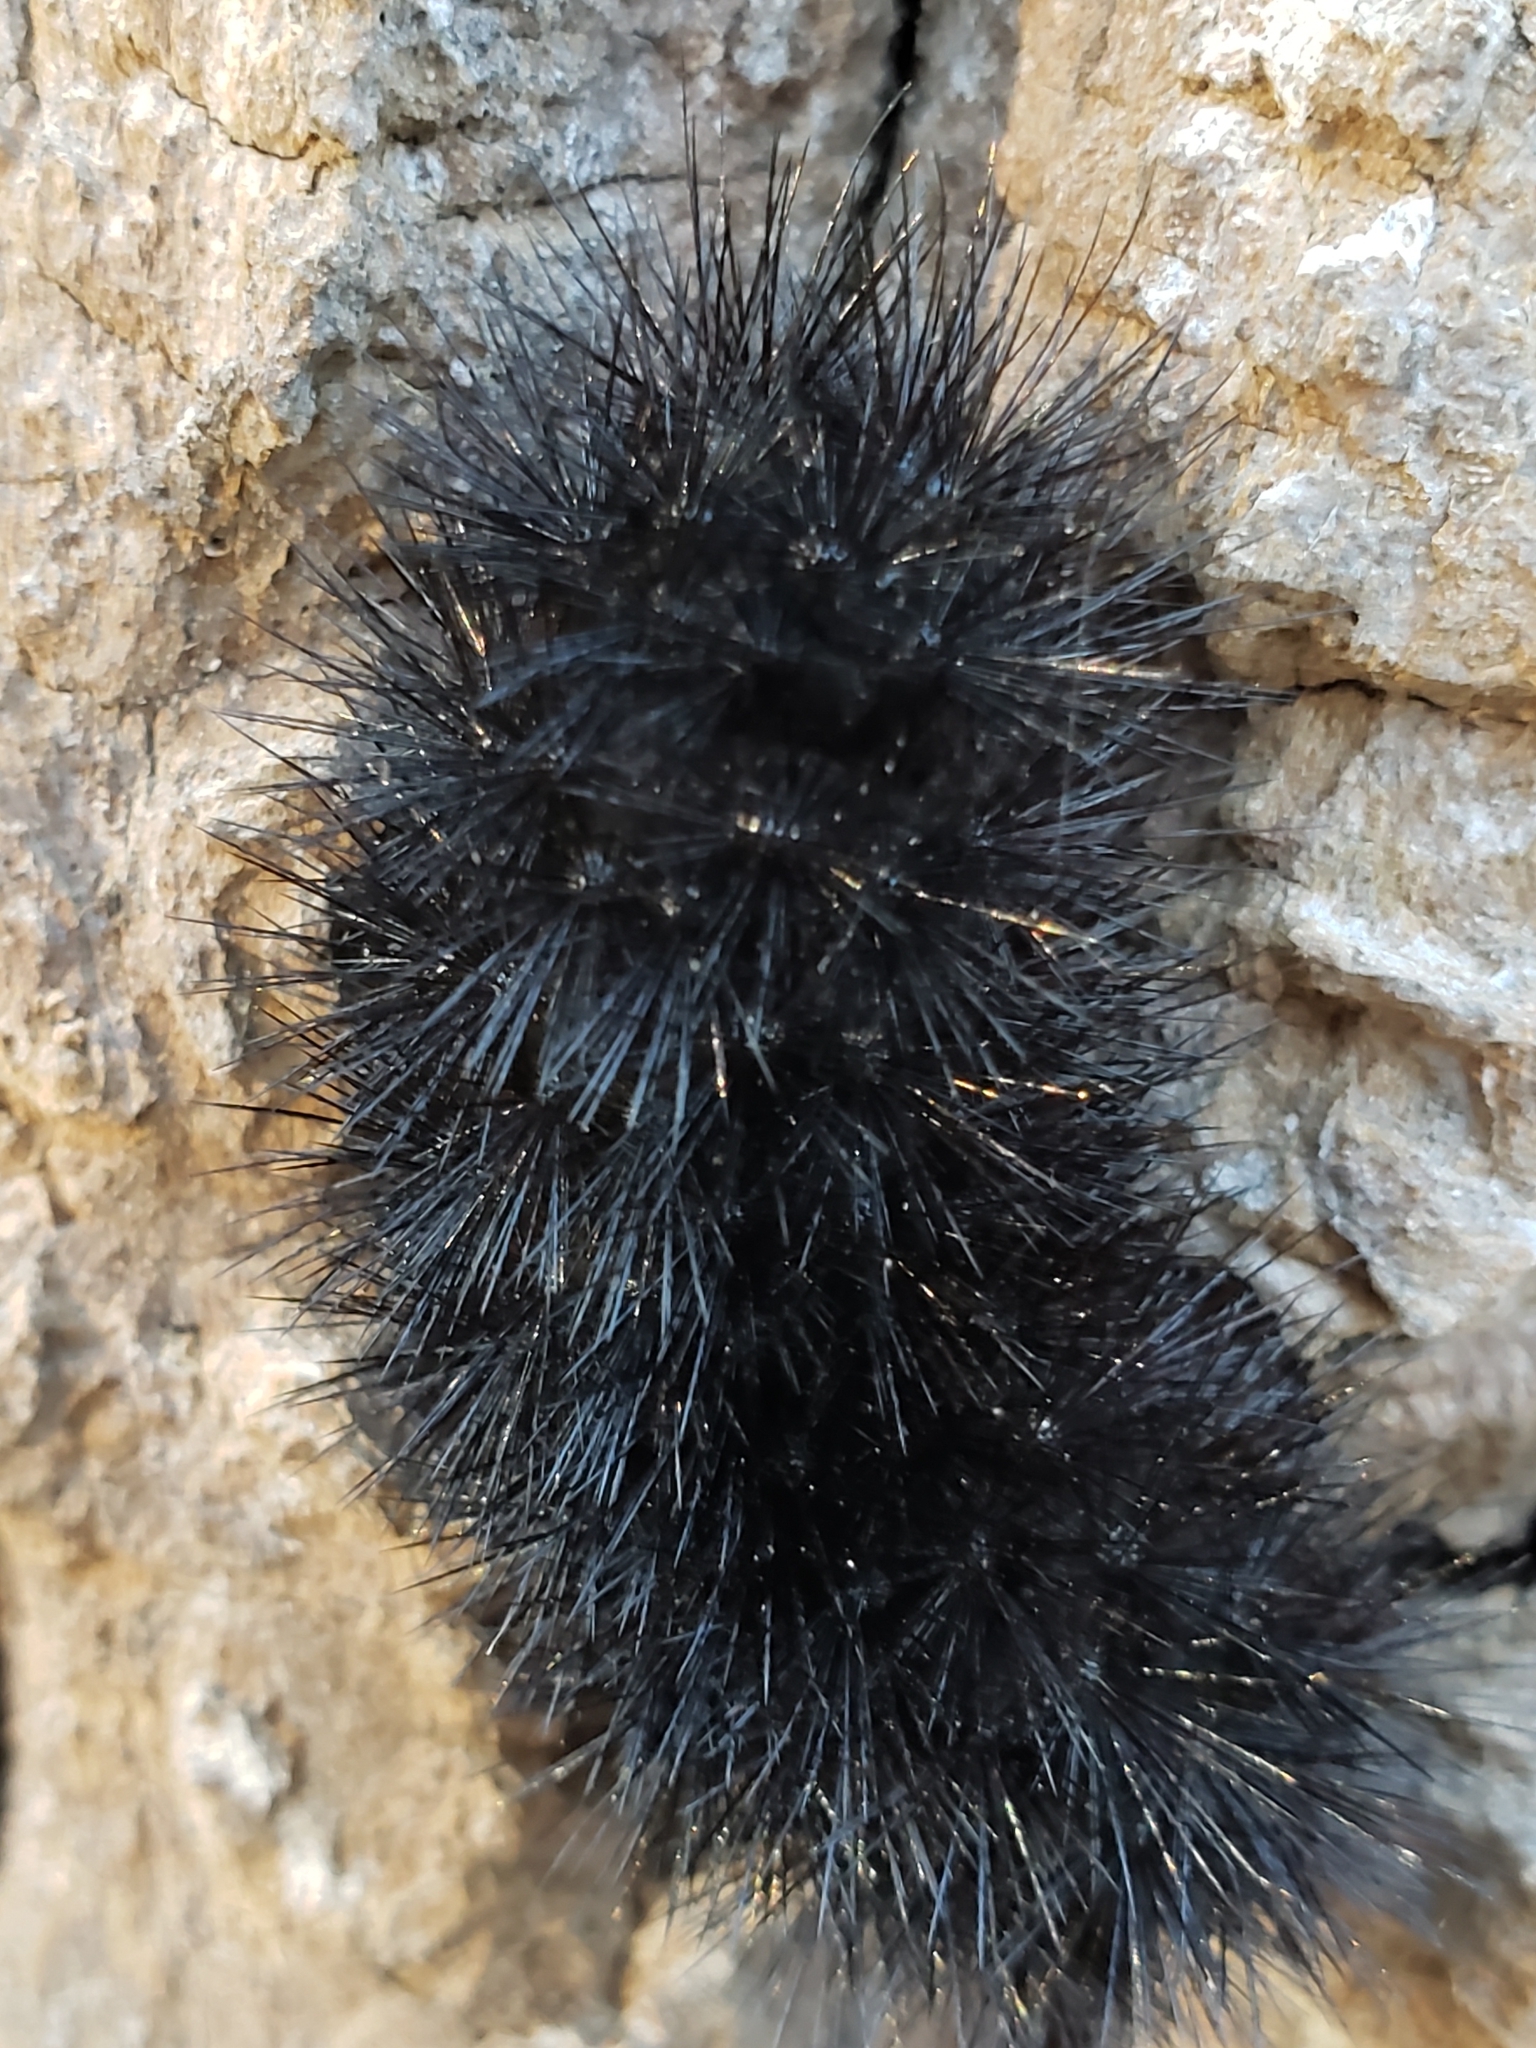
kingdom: Animalia
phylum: Arthropoda
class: Insecta
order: Lepidoptera
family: Erebidae
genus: Hypercompe
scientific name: Hypercompe scribonia
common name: Giant leopard moth
